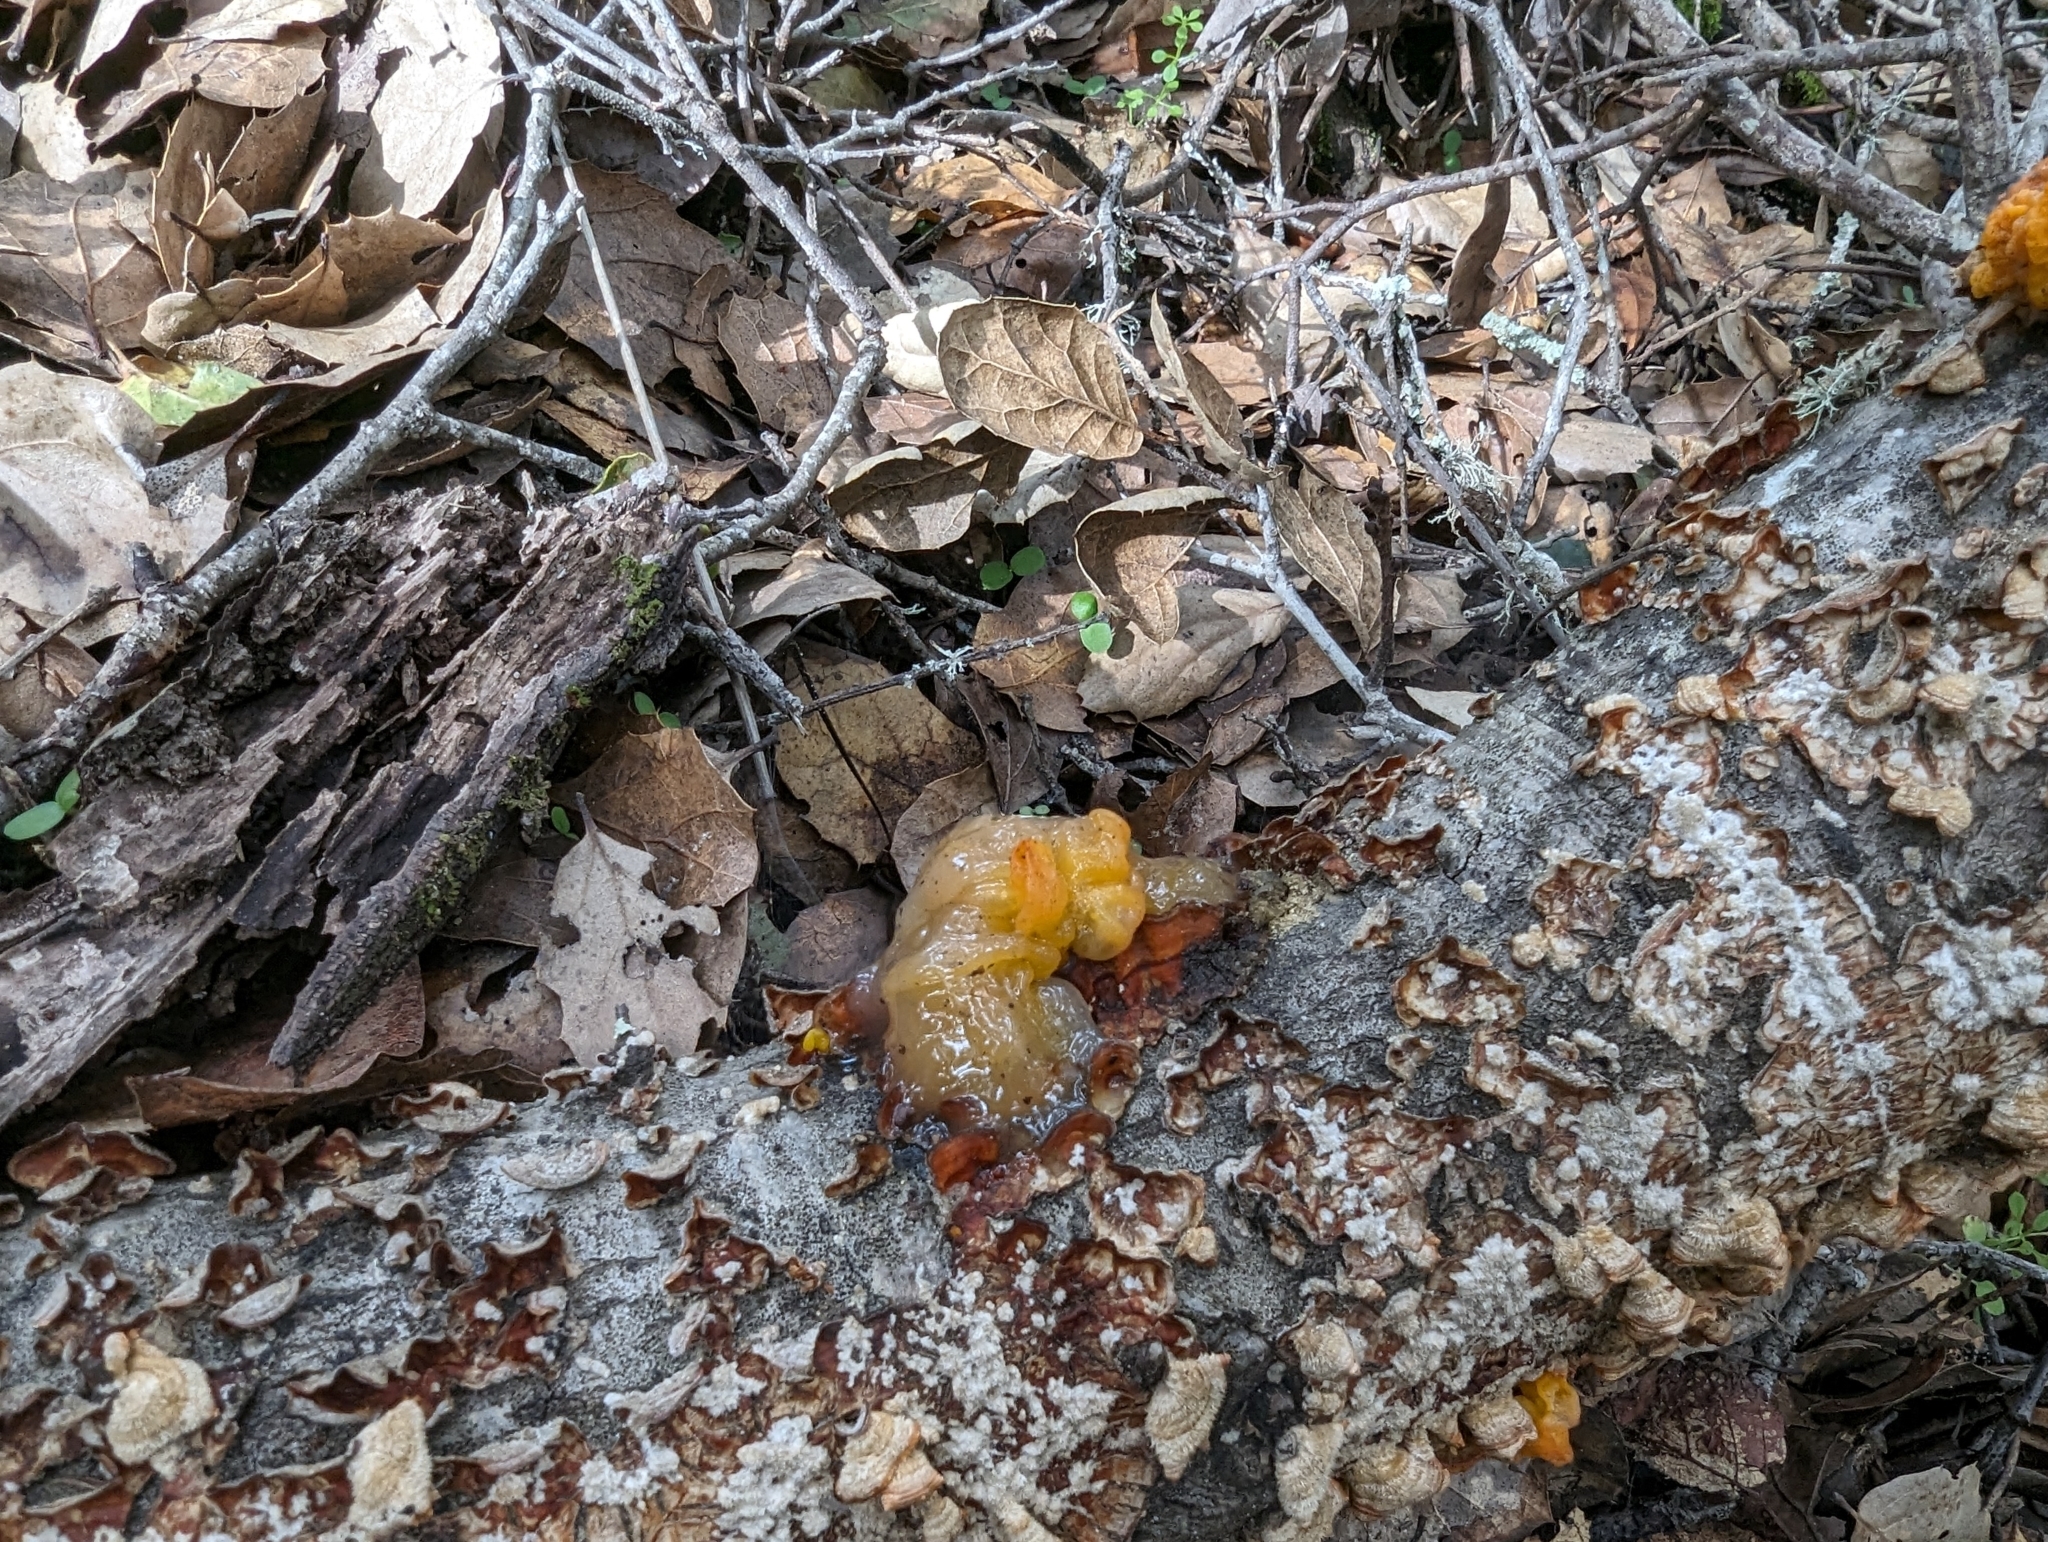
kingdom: Fungi
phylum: Basidiomycota
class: Tremellomycetes
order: Tremellales
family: Naemateliaceae
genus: Naematelia
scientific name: Naematelia aurantia
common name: Golden ear
